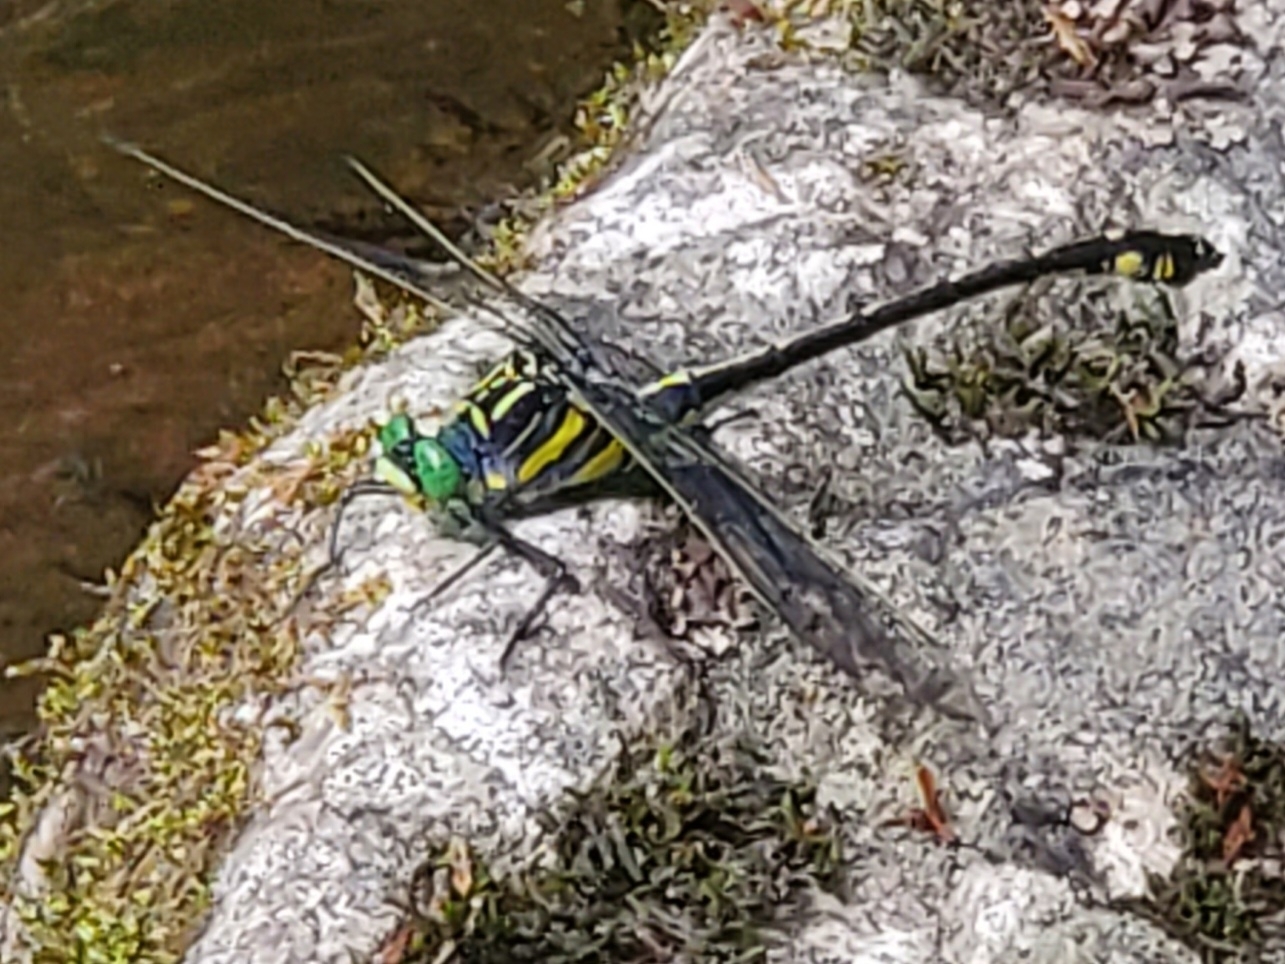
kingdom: Animalia
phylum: Arthropoda
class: Insecta
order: Odonata
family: Gomphidae
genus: Hagenius
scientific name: Hagenius brevistylus
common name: Dragonhunter
